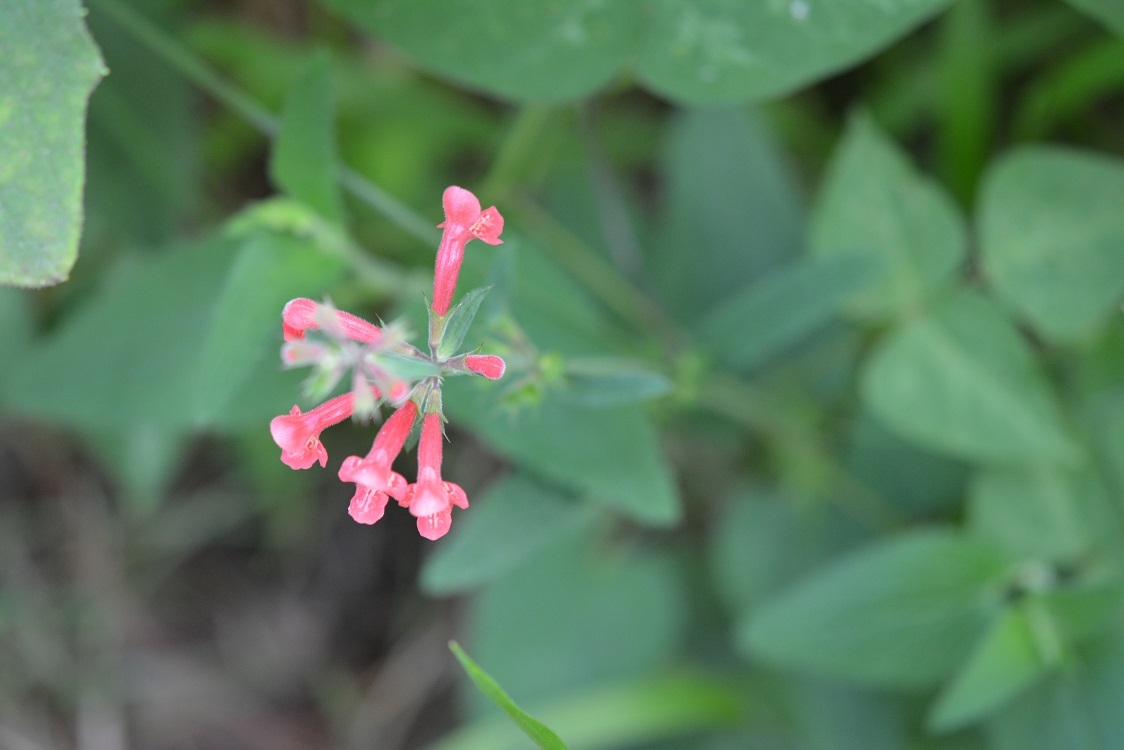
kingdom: Plantae
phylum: Tracheophyta
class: Magnoliopsida
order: Lamiales
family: Lamiaceae
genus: Stachys
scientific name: Stachys coccinea
